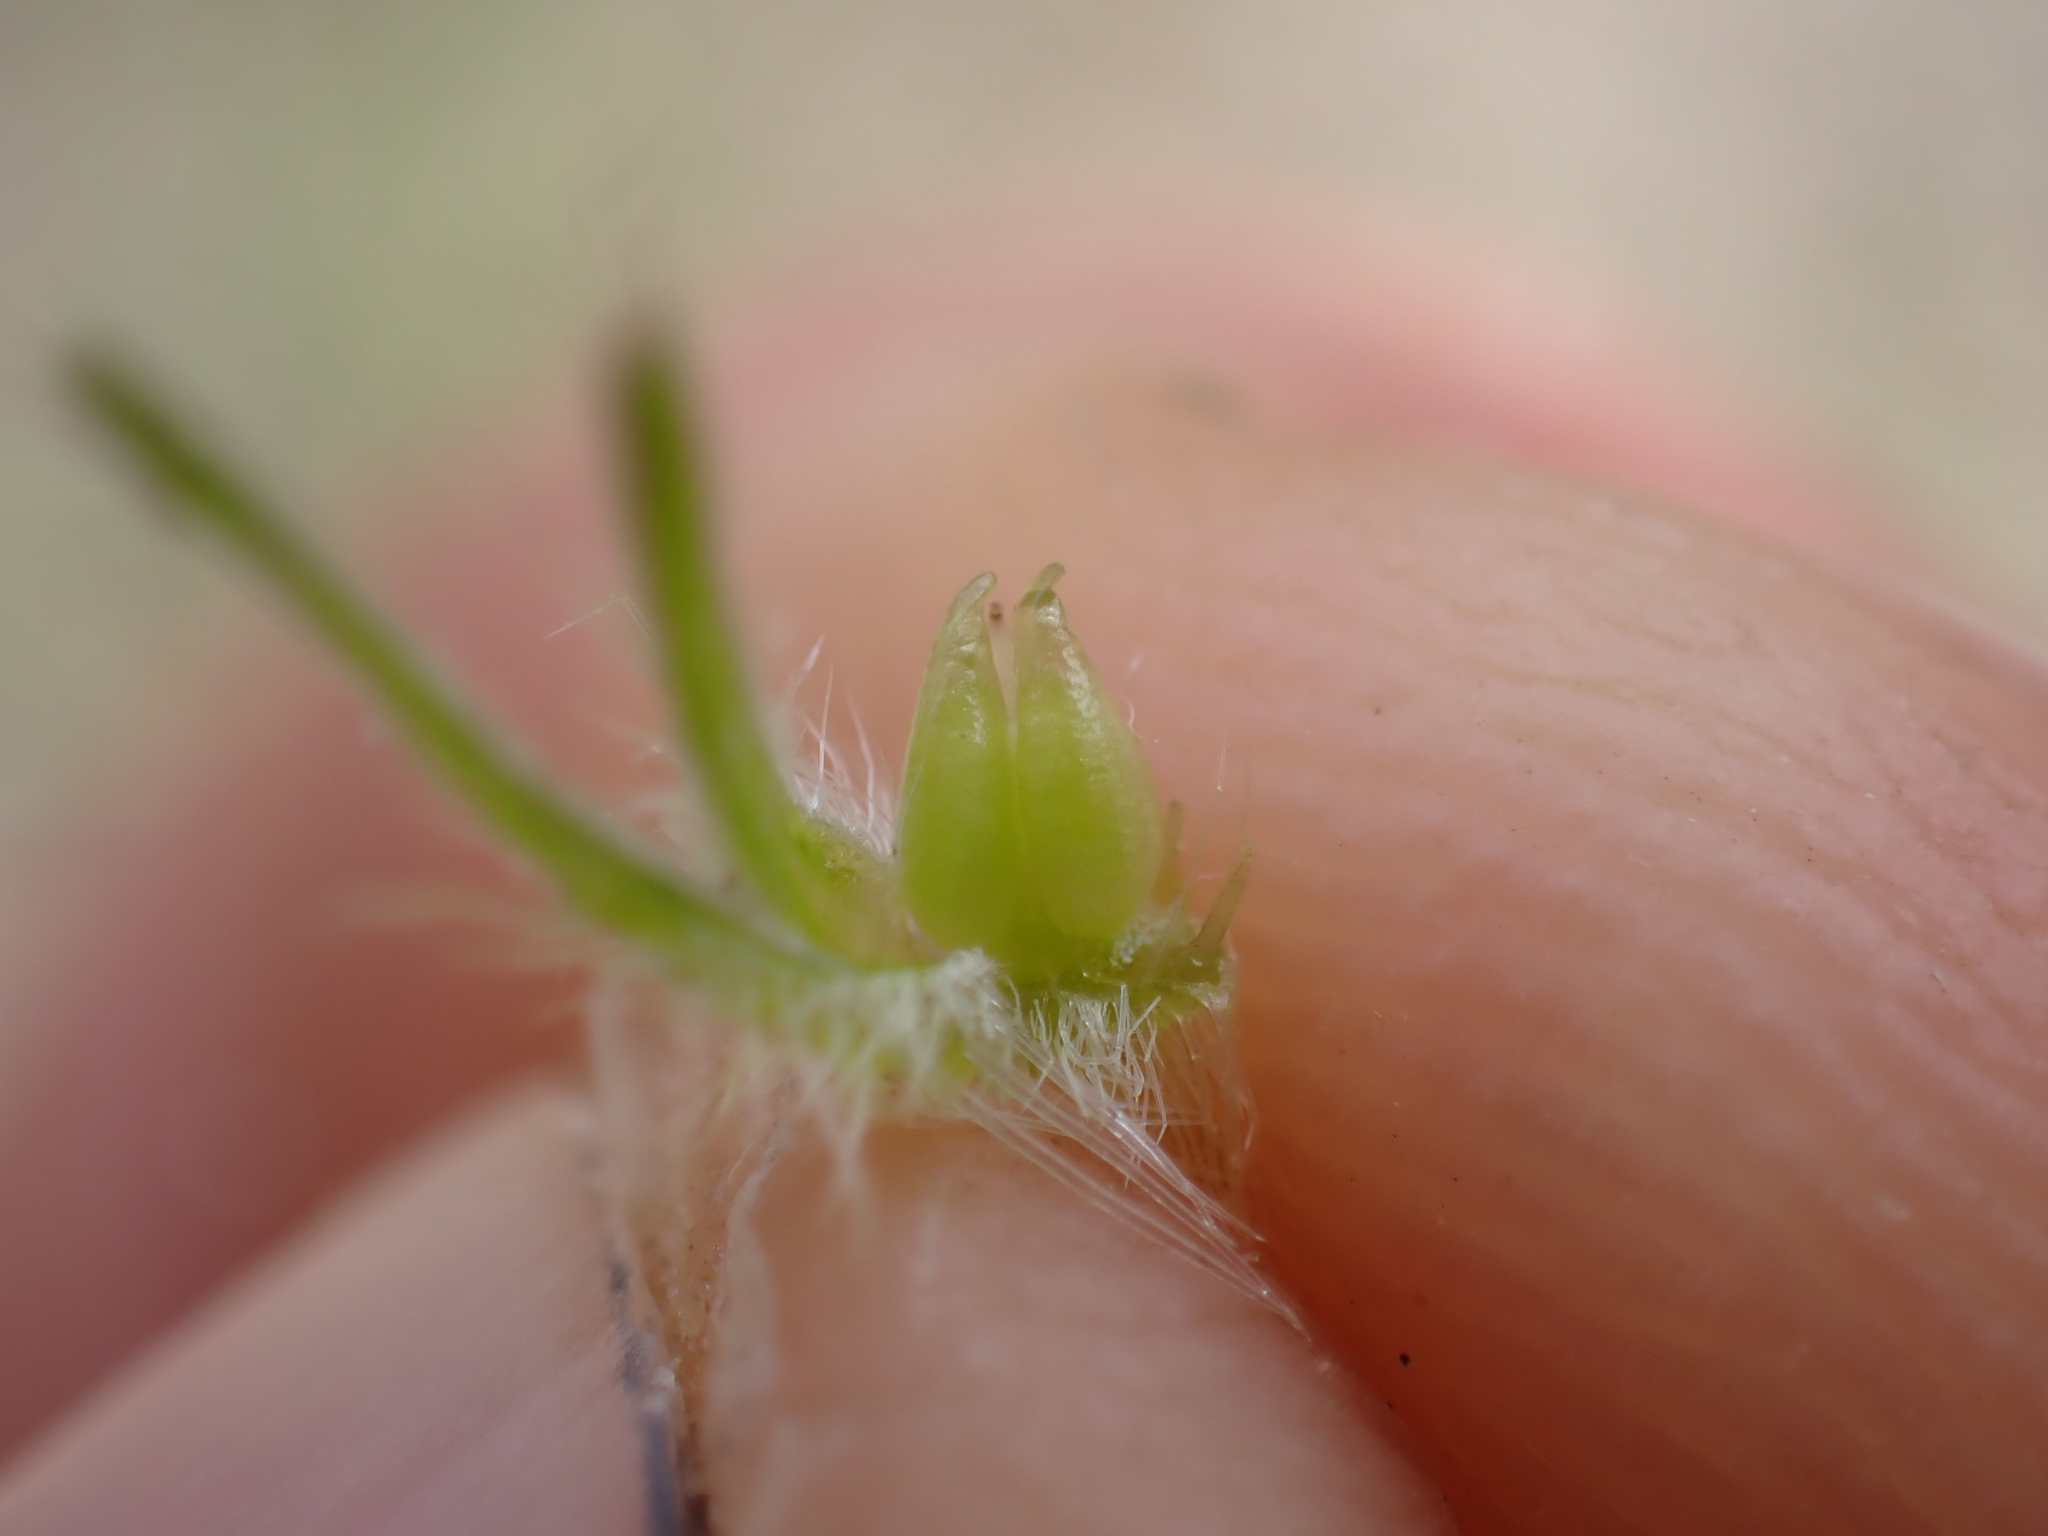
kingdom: Plantae
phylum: Tracheophyta
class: Magnoliopsida
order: Boraginales
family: Boraginaceae
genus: Cryptantha
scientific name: Cryptantha ganderi
